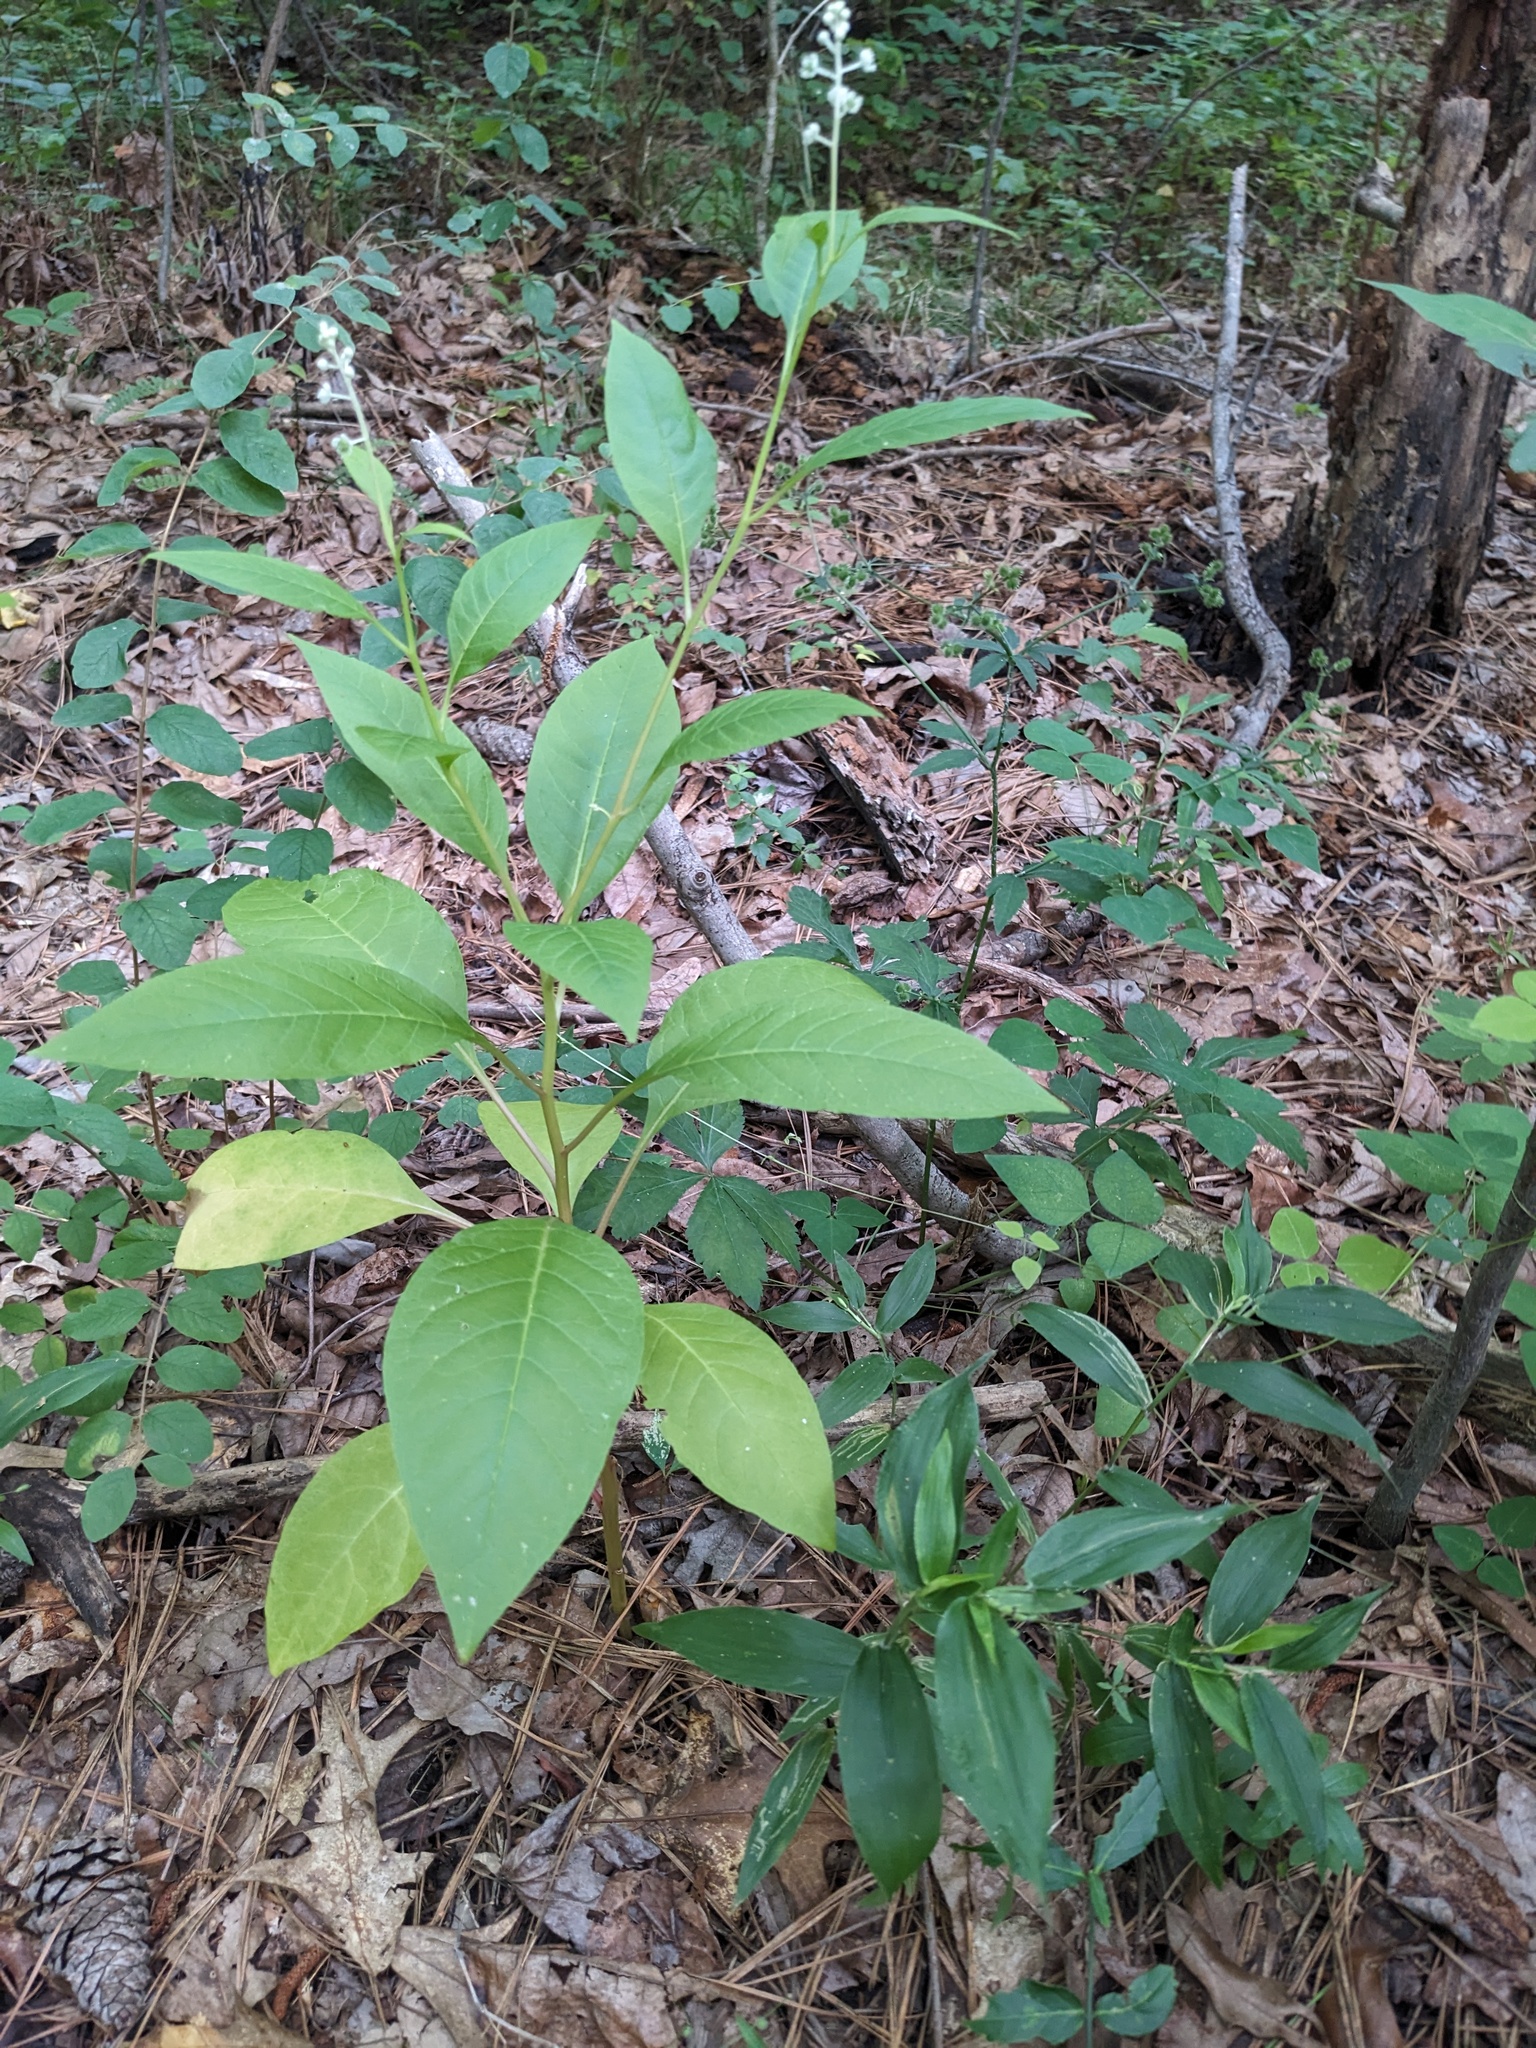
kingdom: Plantae
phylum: Tracheophyta
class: Magnoliopsida
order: Caryophyllales
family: Phytolaccaceae
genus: Phytolacca
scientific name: Phytolacca americana
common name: American pokeweed
